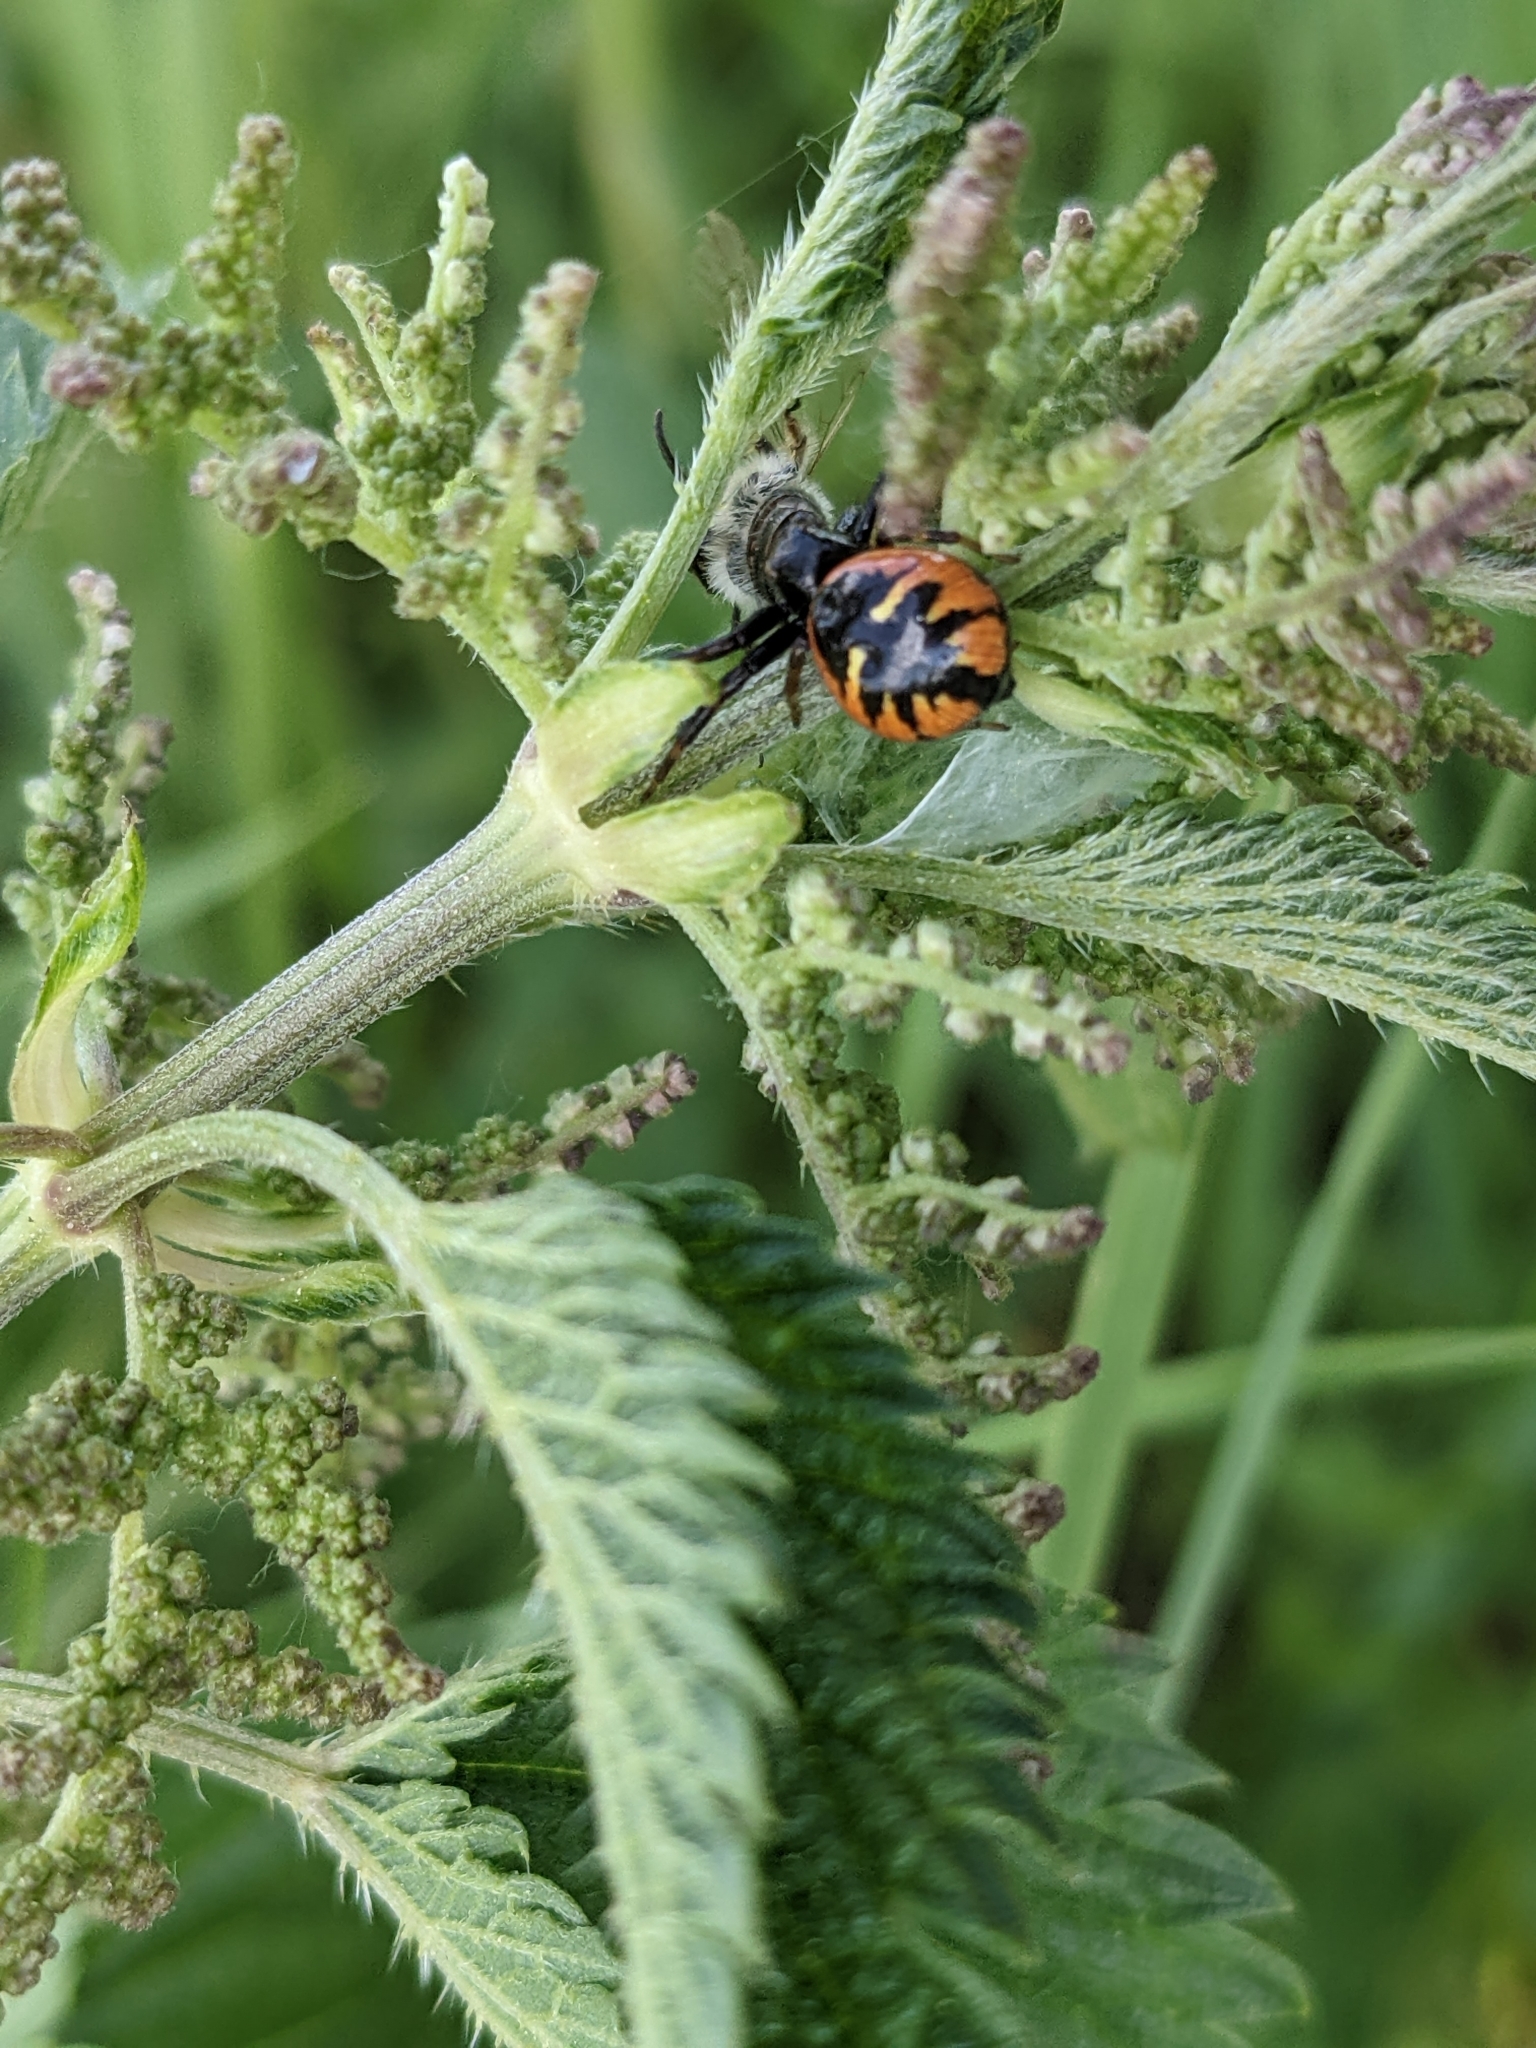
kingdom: Animalia
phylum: Arthropoda
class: Arachnida
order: Araneae
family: Thomisidae
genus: Synema
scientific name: Synema globosum
